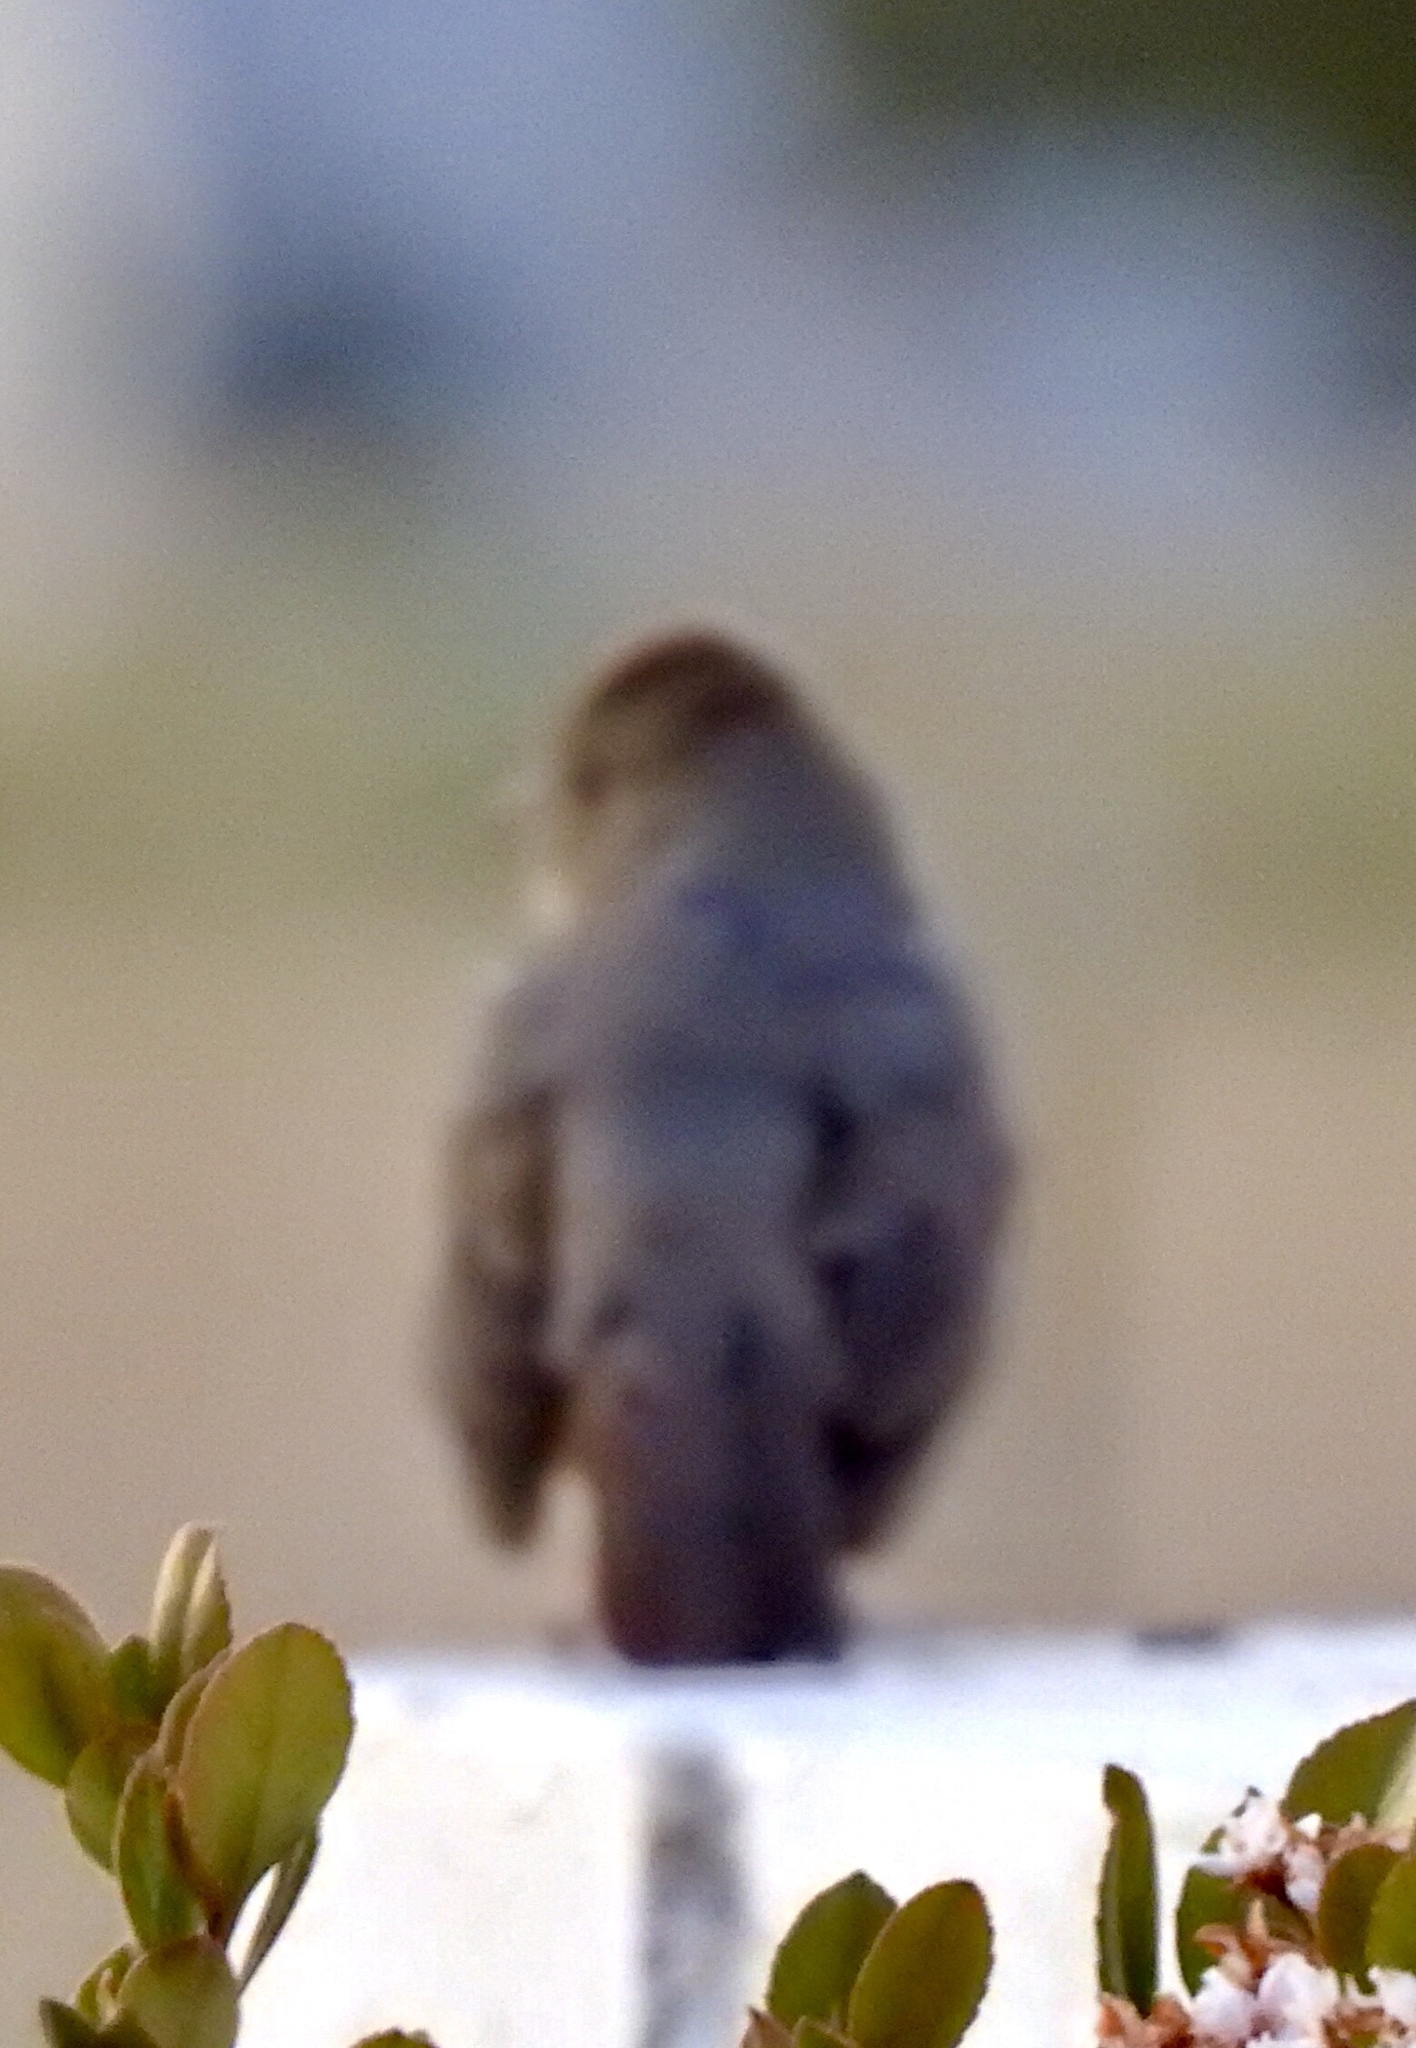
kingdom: Animalia
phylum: Chordata
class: Aves
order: Passeriformes
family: Passerellidae
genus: Melozone
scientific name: Melozone fusca
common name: Canyon towhee
